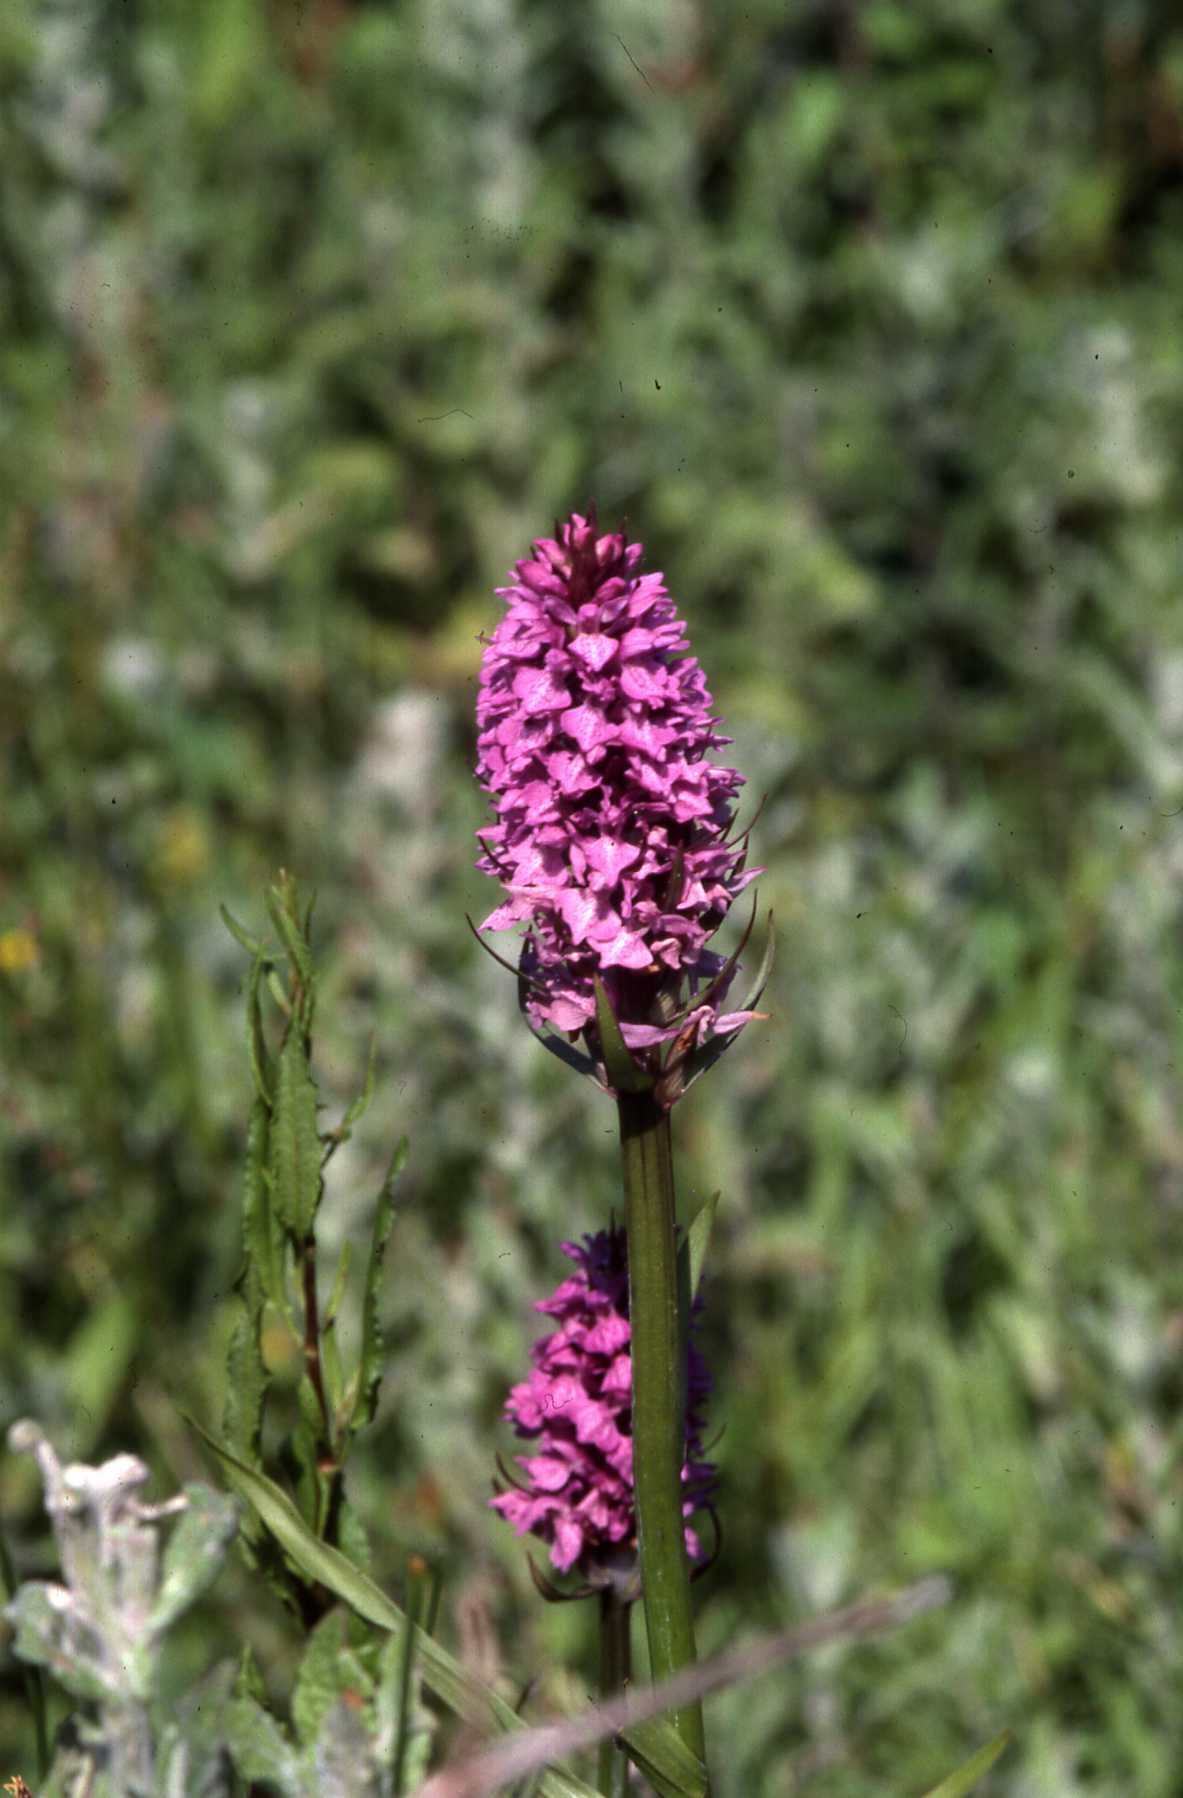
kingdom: Plantae
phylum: Tracheophyta
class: Liliopsida
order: Asparagales
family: Orchidaceae
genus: Dactylorhiza
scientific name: Dactylorhiza majalis
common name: Marsh orchid
